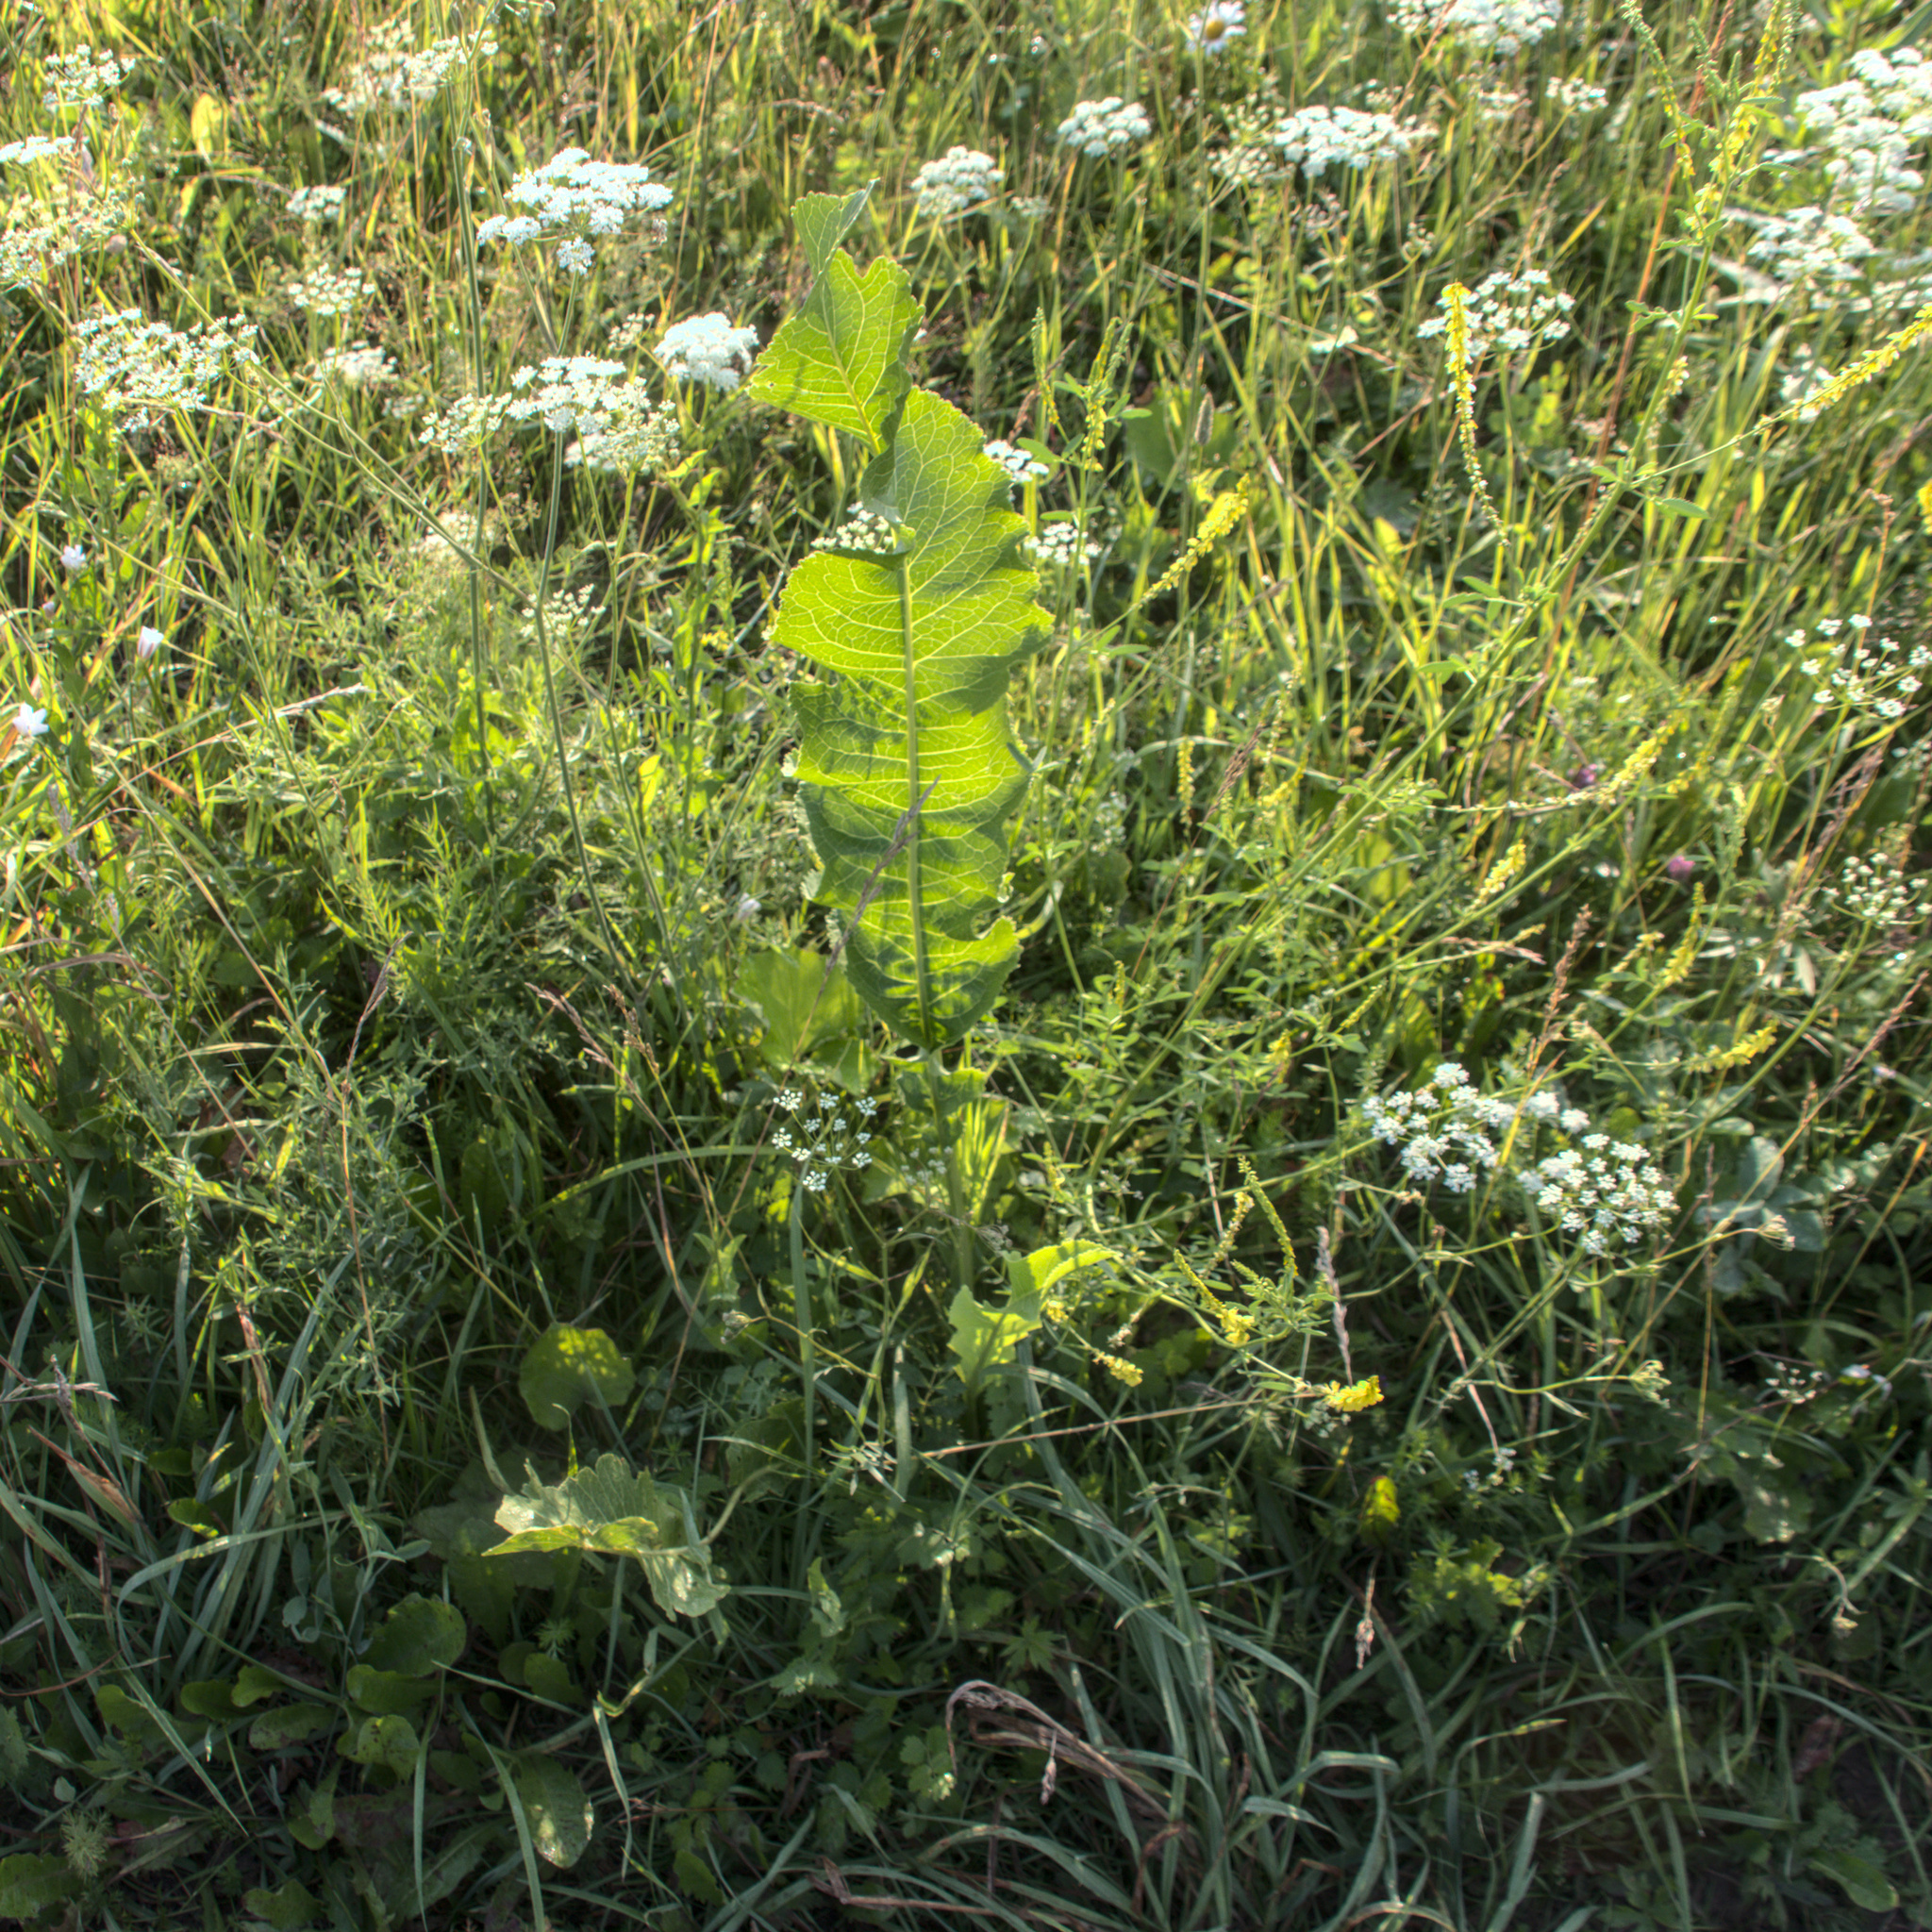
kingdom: Plantae
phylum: Tracheophyta
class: Magnoliopsida
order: Brassicales
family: Brassicaceae
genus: Armoracia
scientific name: Armoracia rusticana
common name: Horseradish
